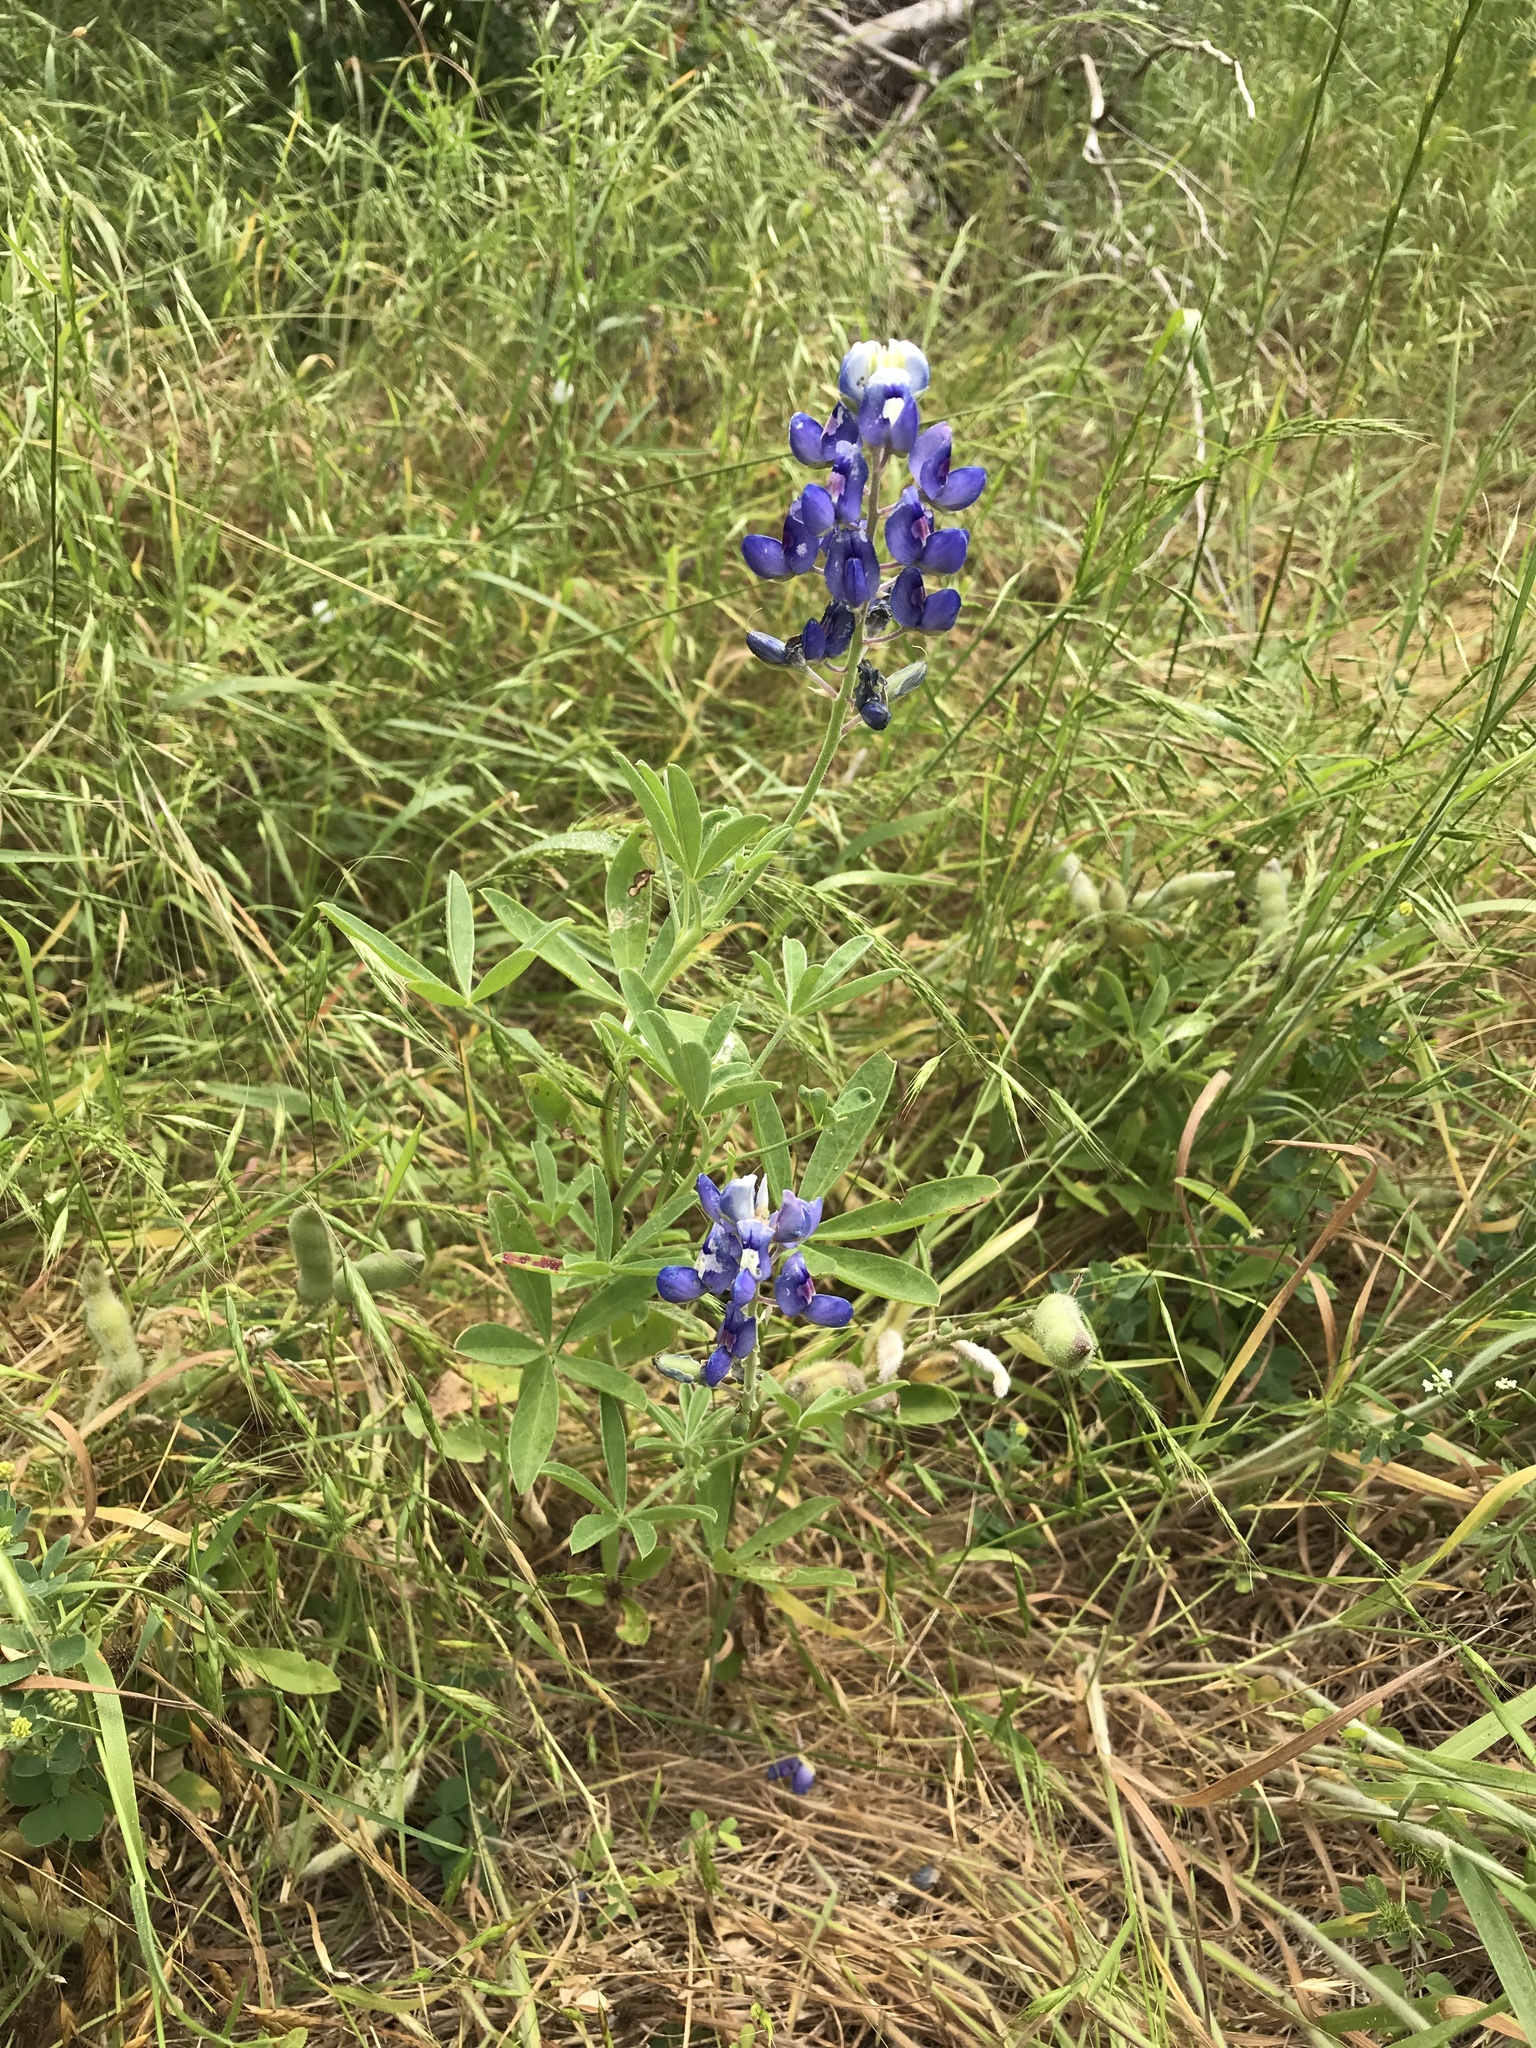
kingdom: Plantae
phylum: Tracheophyta
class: Magnoliopsida
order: Fabales
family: Fabaceae
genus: Lupinus
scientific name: Lupinus texensis
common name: Texas bluebonnet
